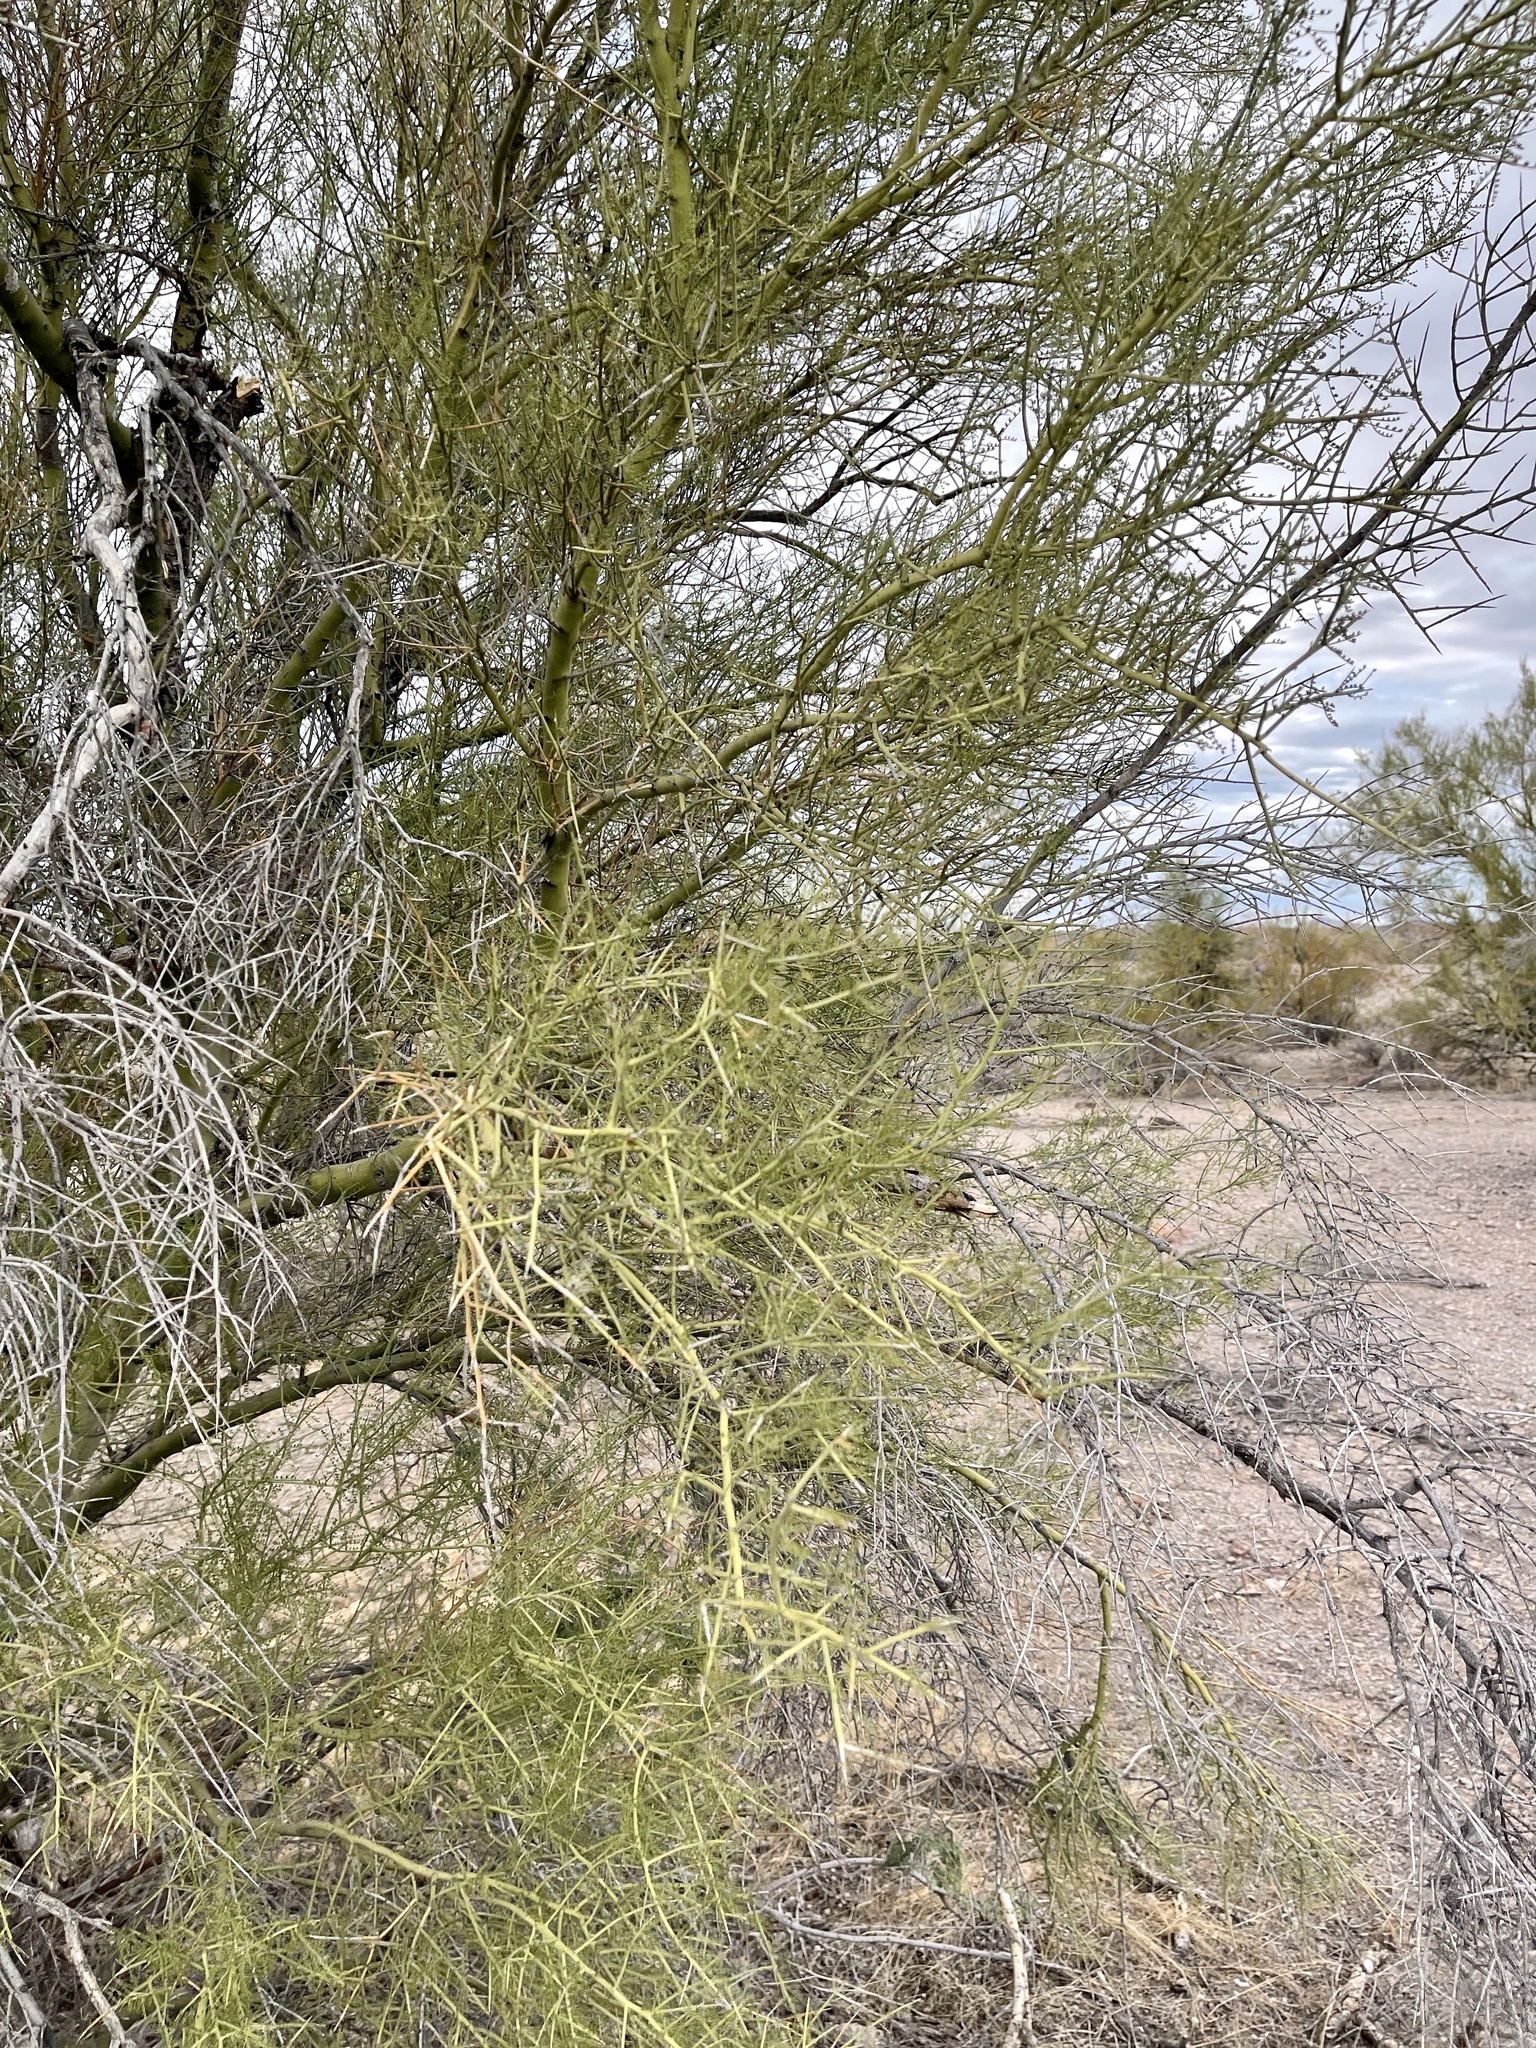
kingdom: Plantae
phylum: Tracheophyta
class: Magnoliopsida
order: Fabales
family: Fabaceae
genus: Parkinsonia
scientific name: Parkinsonia microphylla
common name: Yellow paloverde
